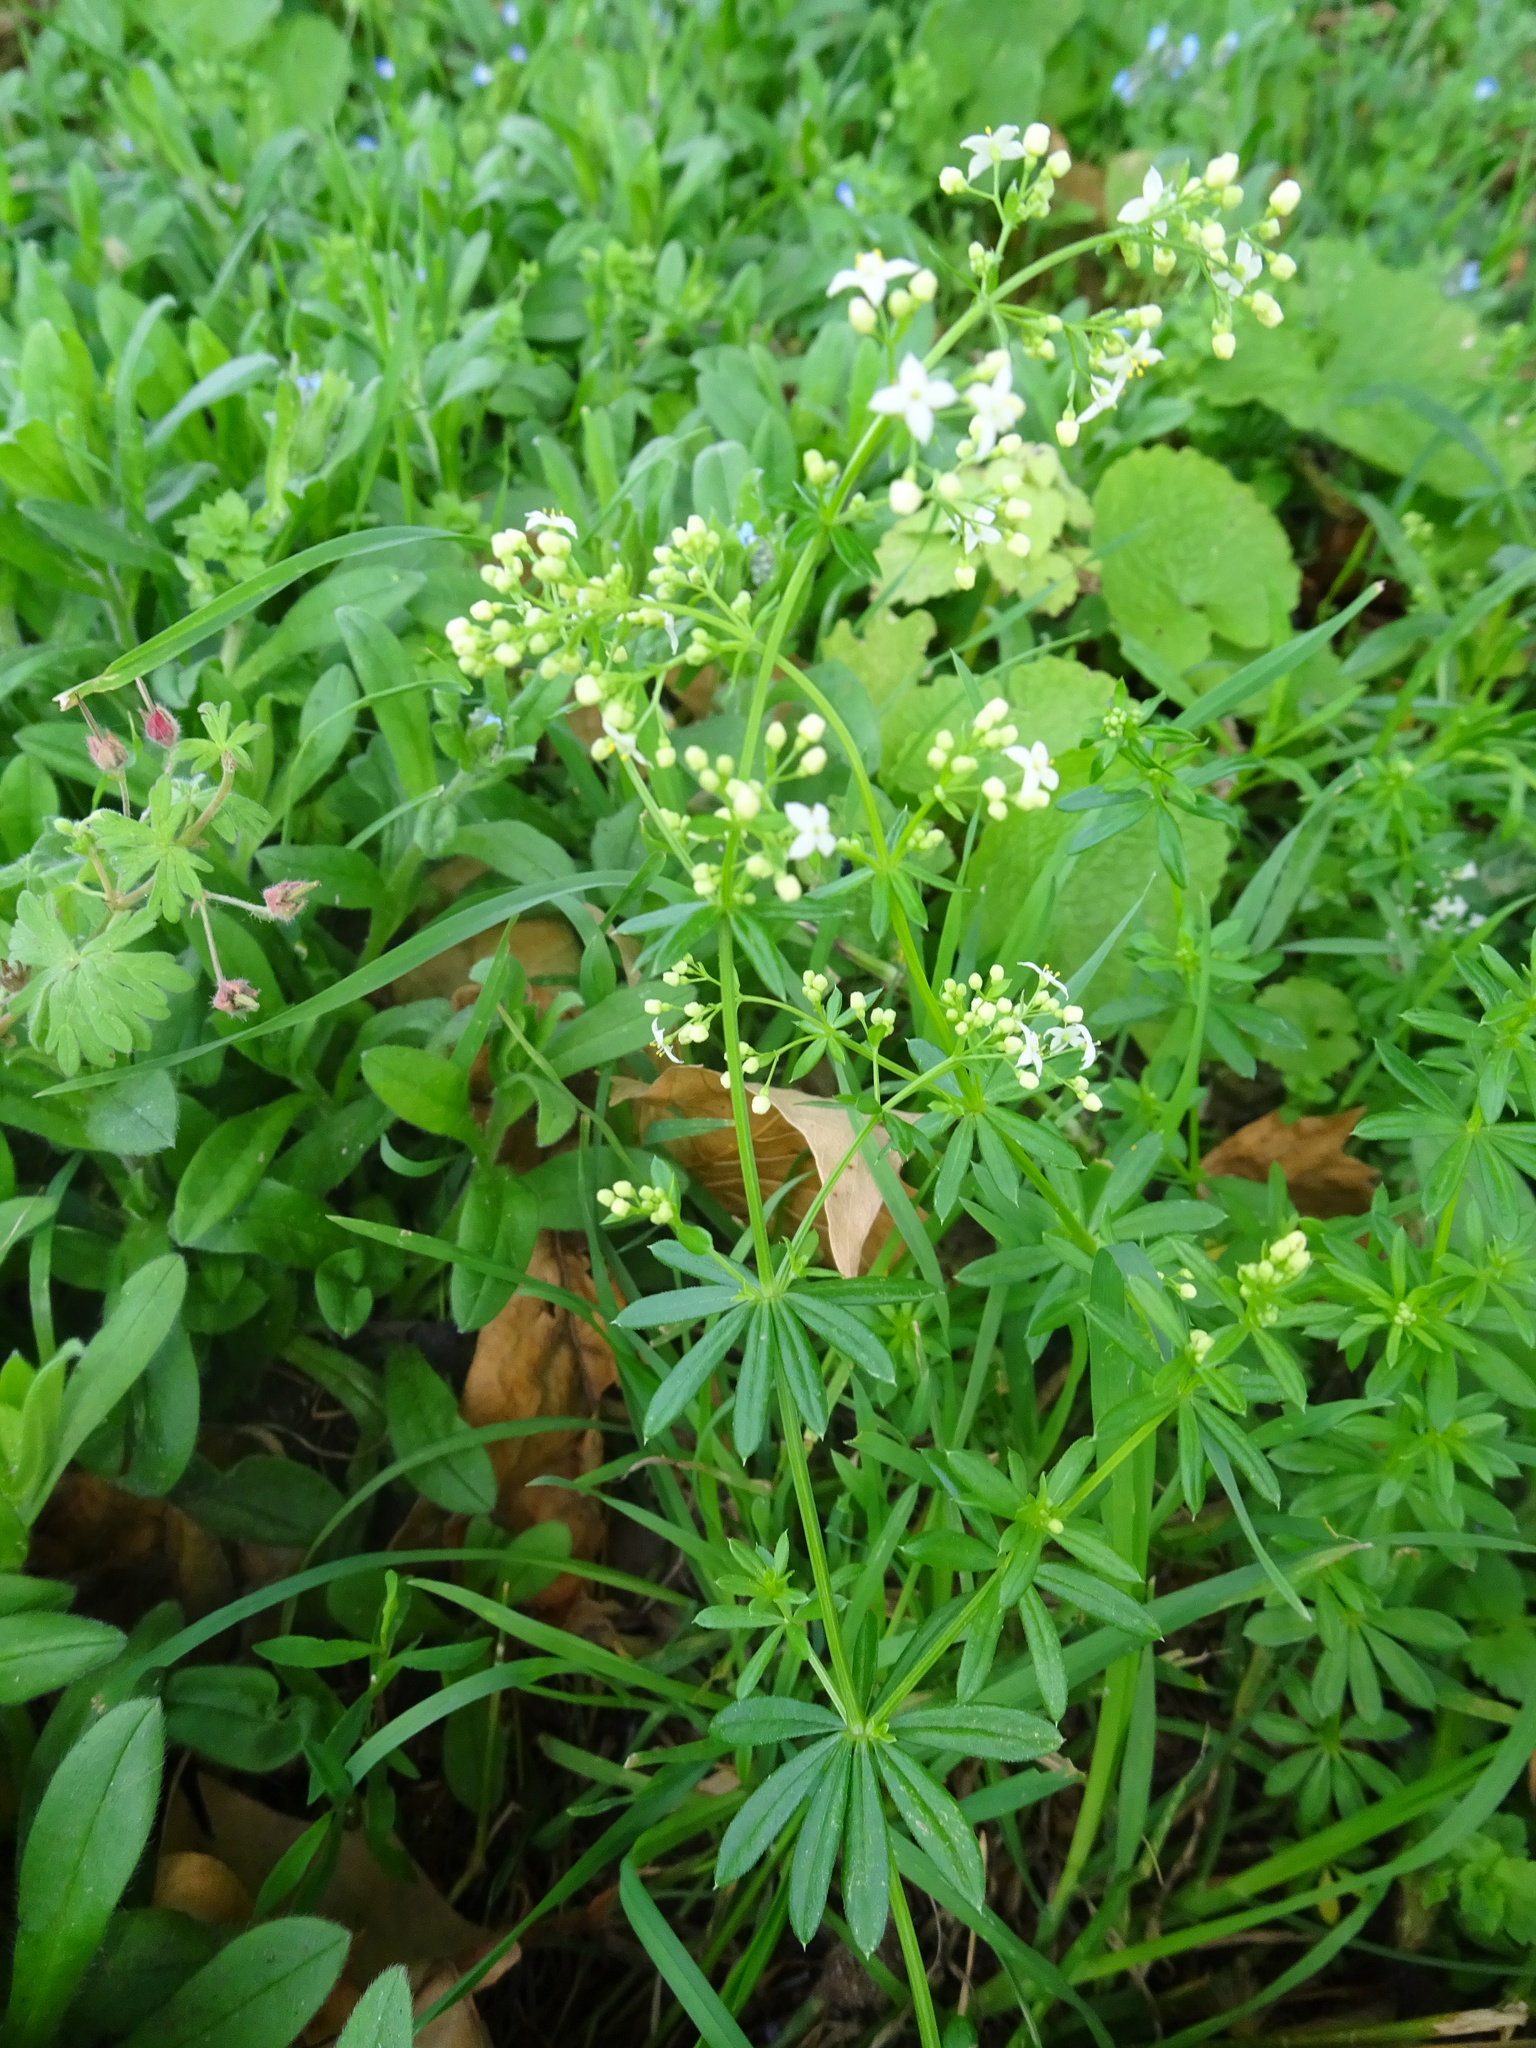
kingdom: Plantae
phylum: Tracheophyta
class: Magnoliopsida
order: Gentianales
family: Rubiaceae
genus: Galium
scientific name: Galium album
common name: White bedstraw
